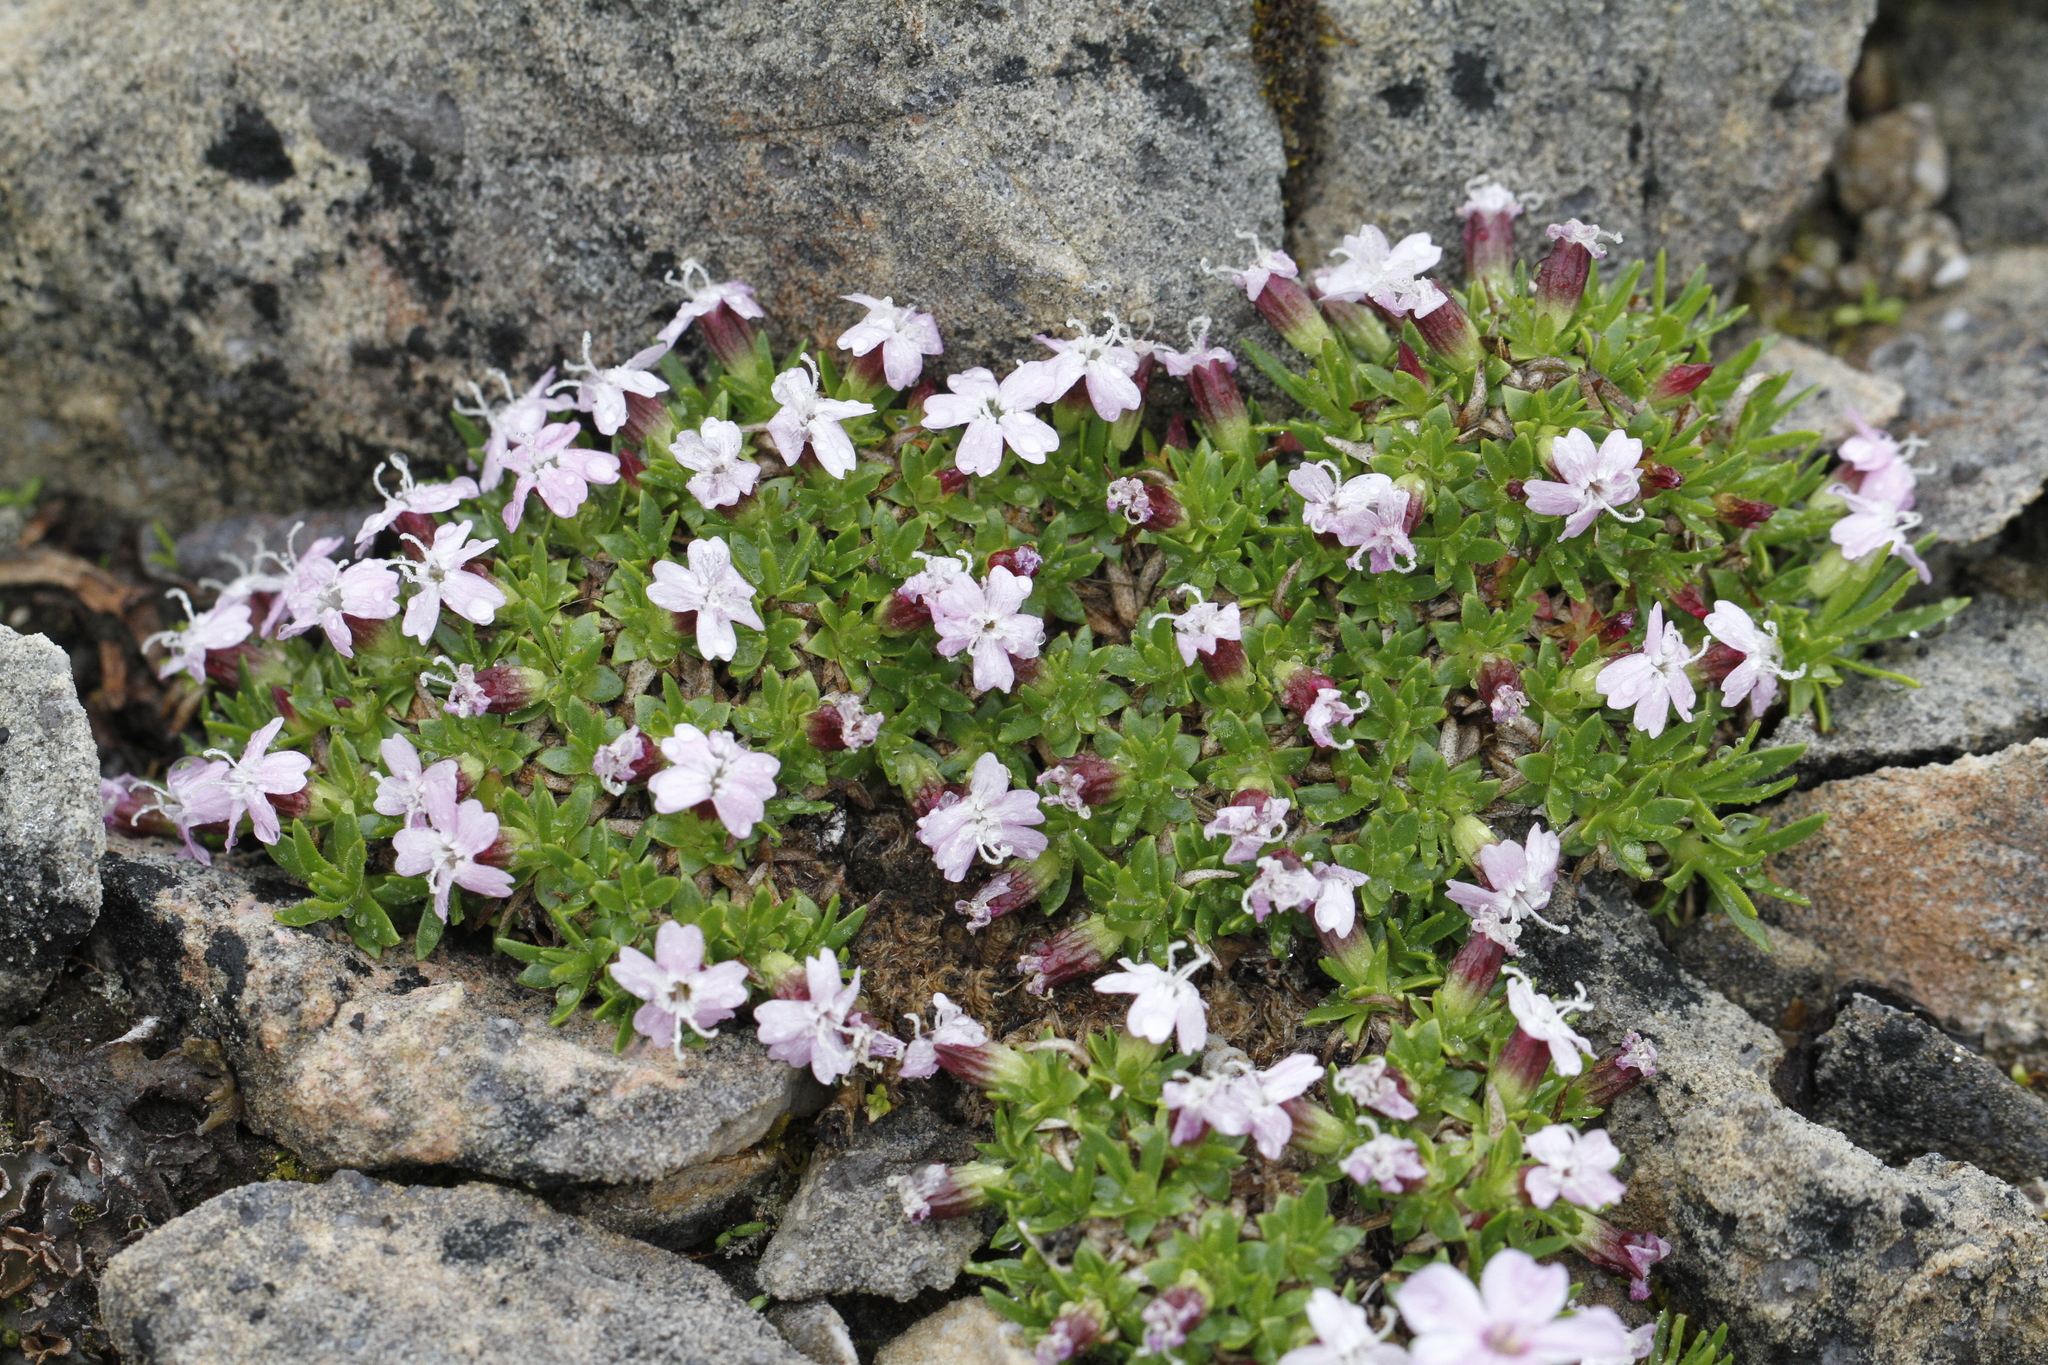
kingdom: Plantae
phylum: Tracheophyta
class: Magnoliopsida
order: Caryophyllales
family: Caryophyllaceae
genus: Silene
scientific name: Silene acaulis
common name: Moss campion
